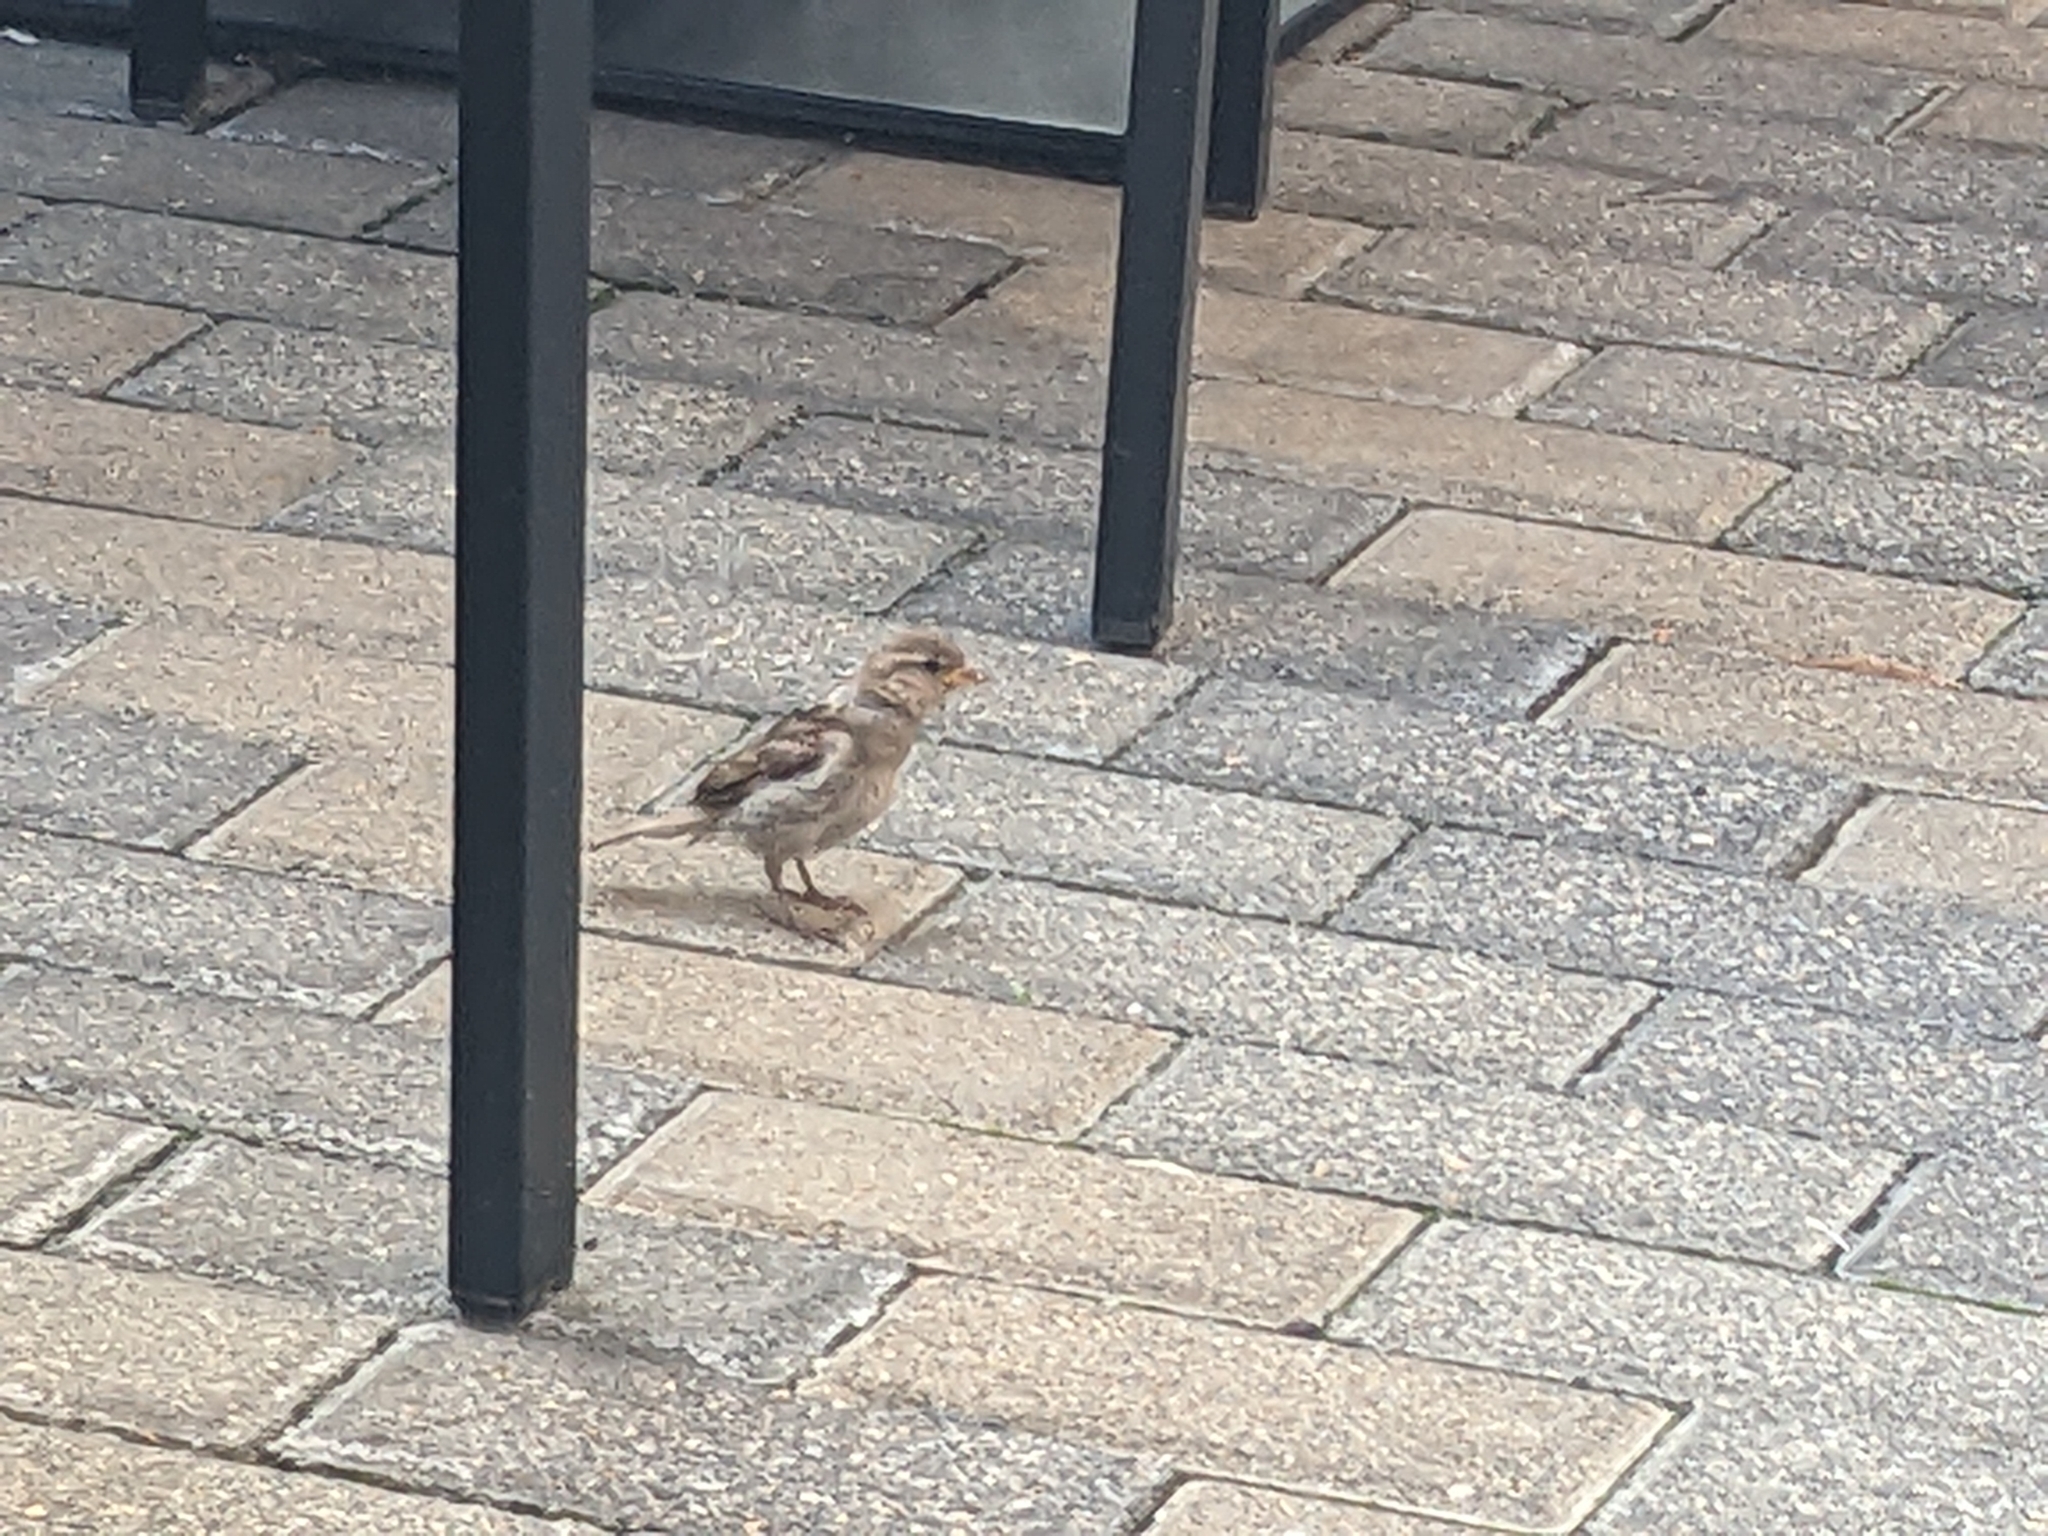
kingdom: Animalia
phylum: Chordata
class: Aves
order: Passeriformes
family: Passeridae
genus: Passer
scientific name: Passer domesticus
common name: House sparrow
